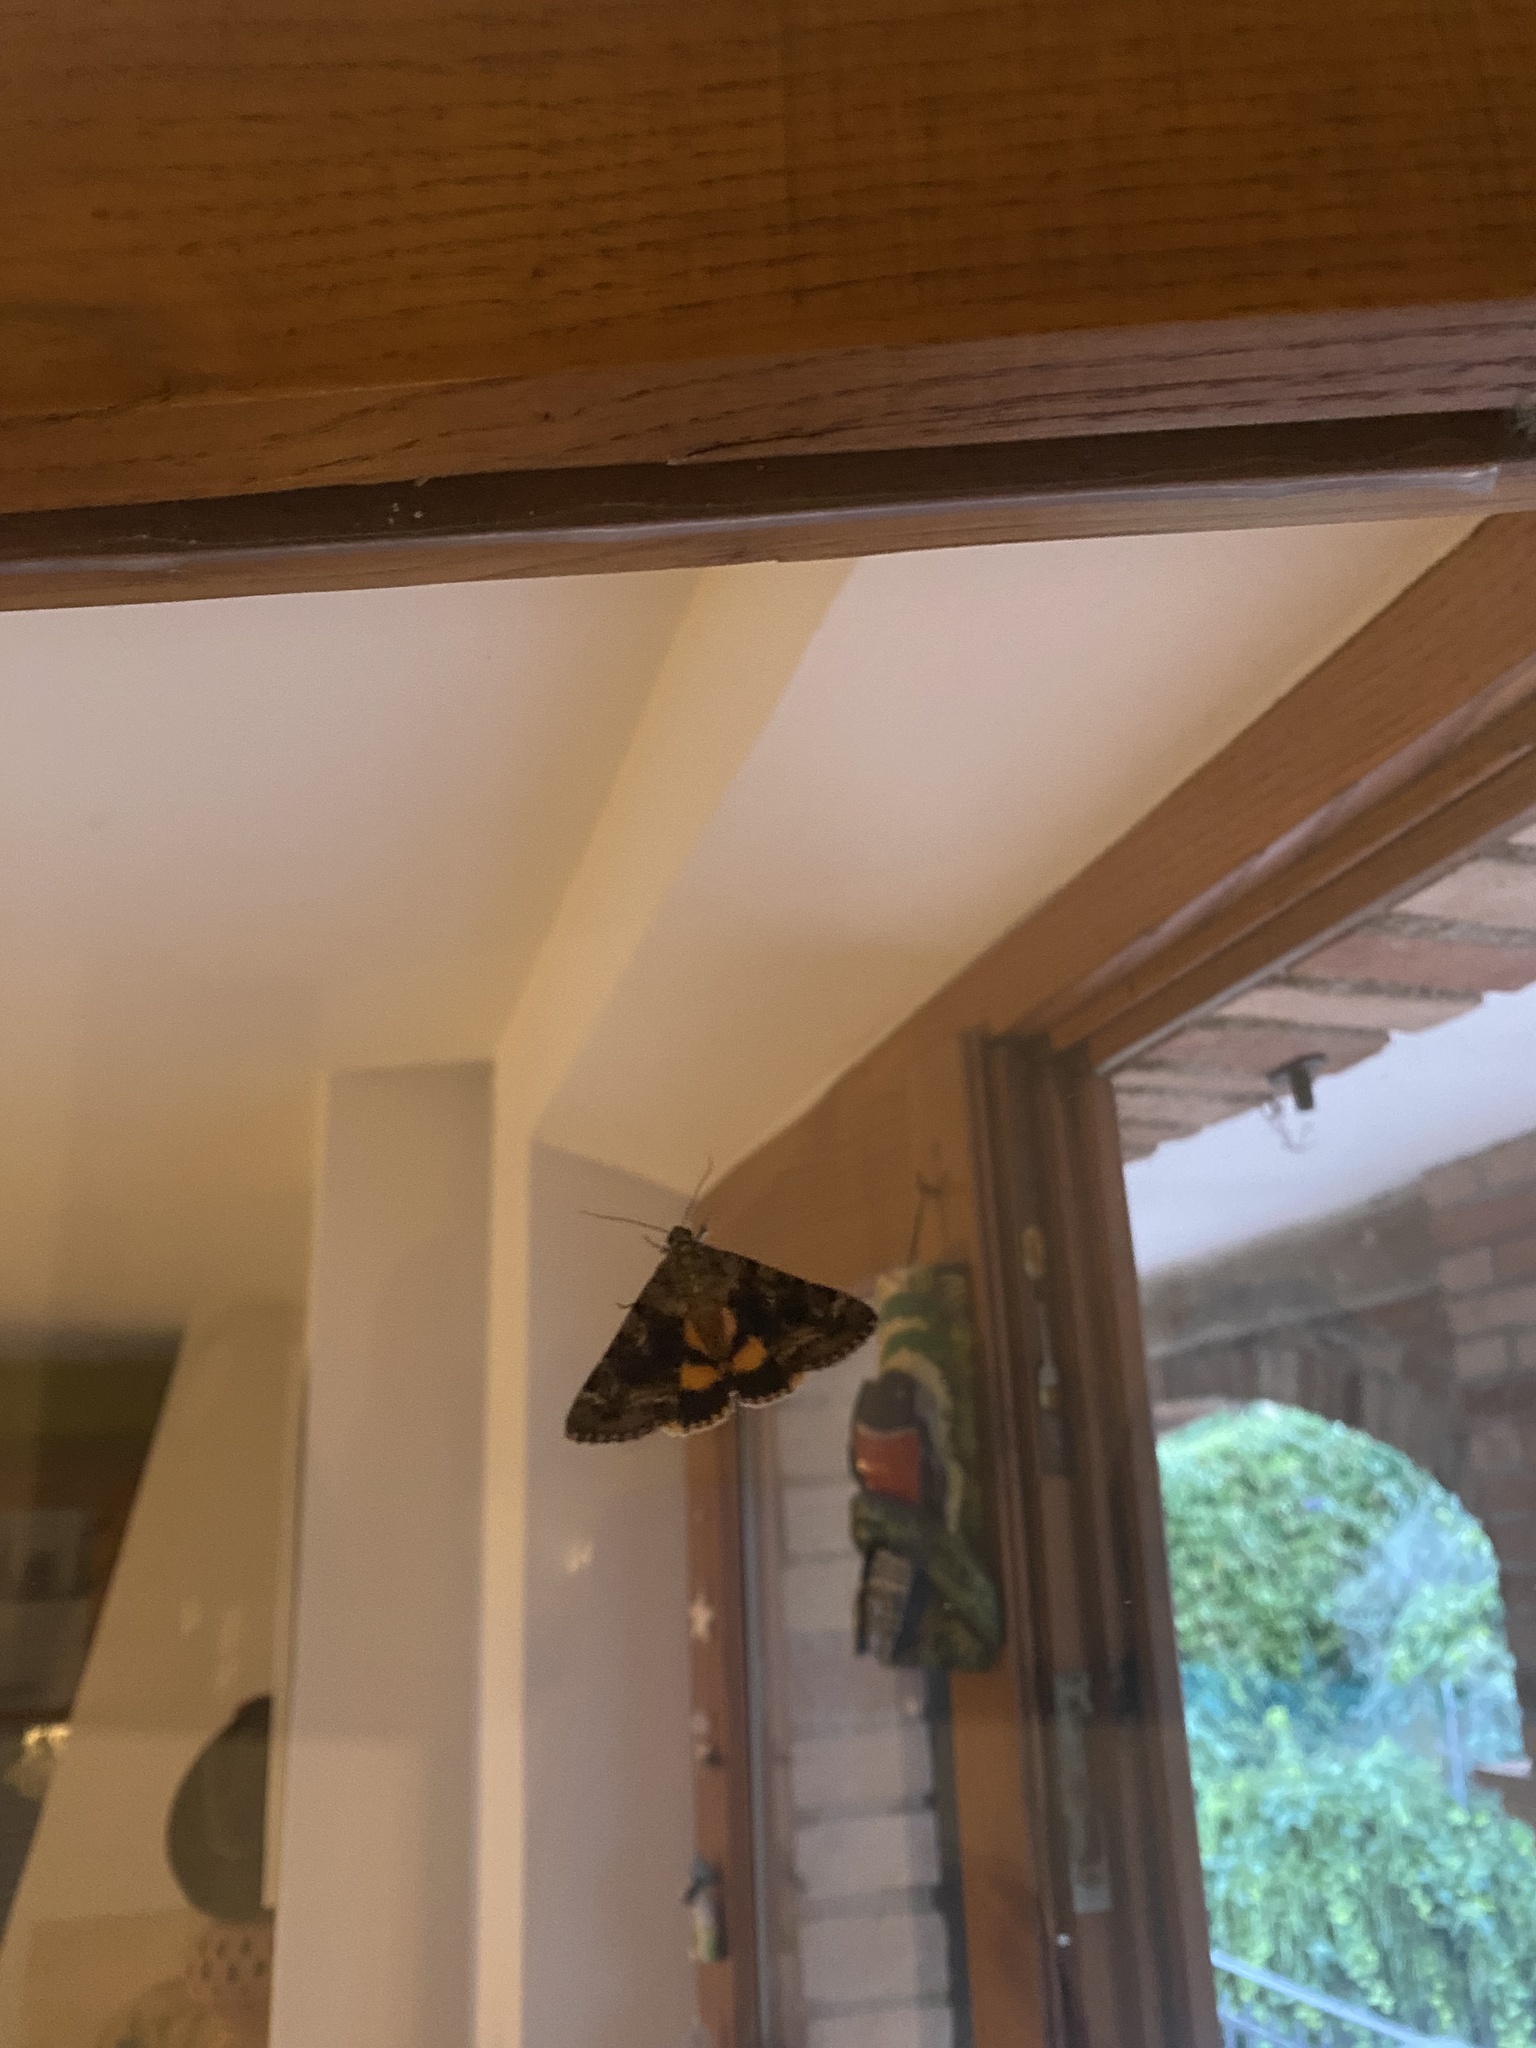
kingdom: Animalia
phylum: Arthropoda
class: Insecta
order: Lepidoptera
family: Erebidae
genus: Catocala
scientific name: Catocala nymphagoga
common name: Oak yellow underwing
